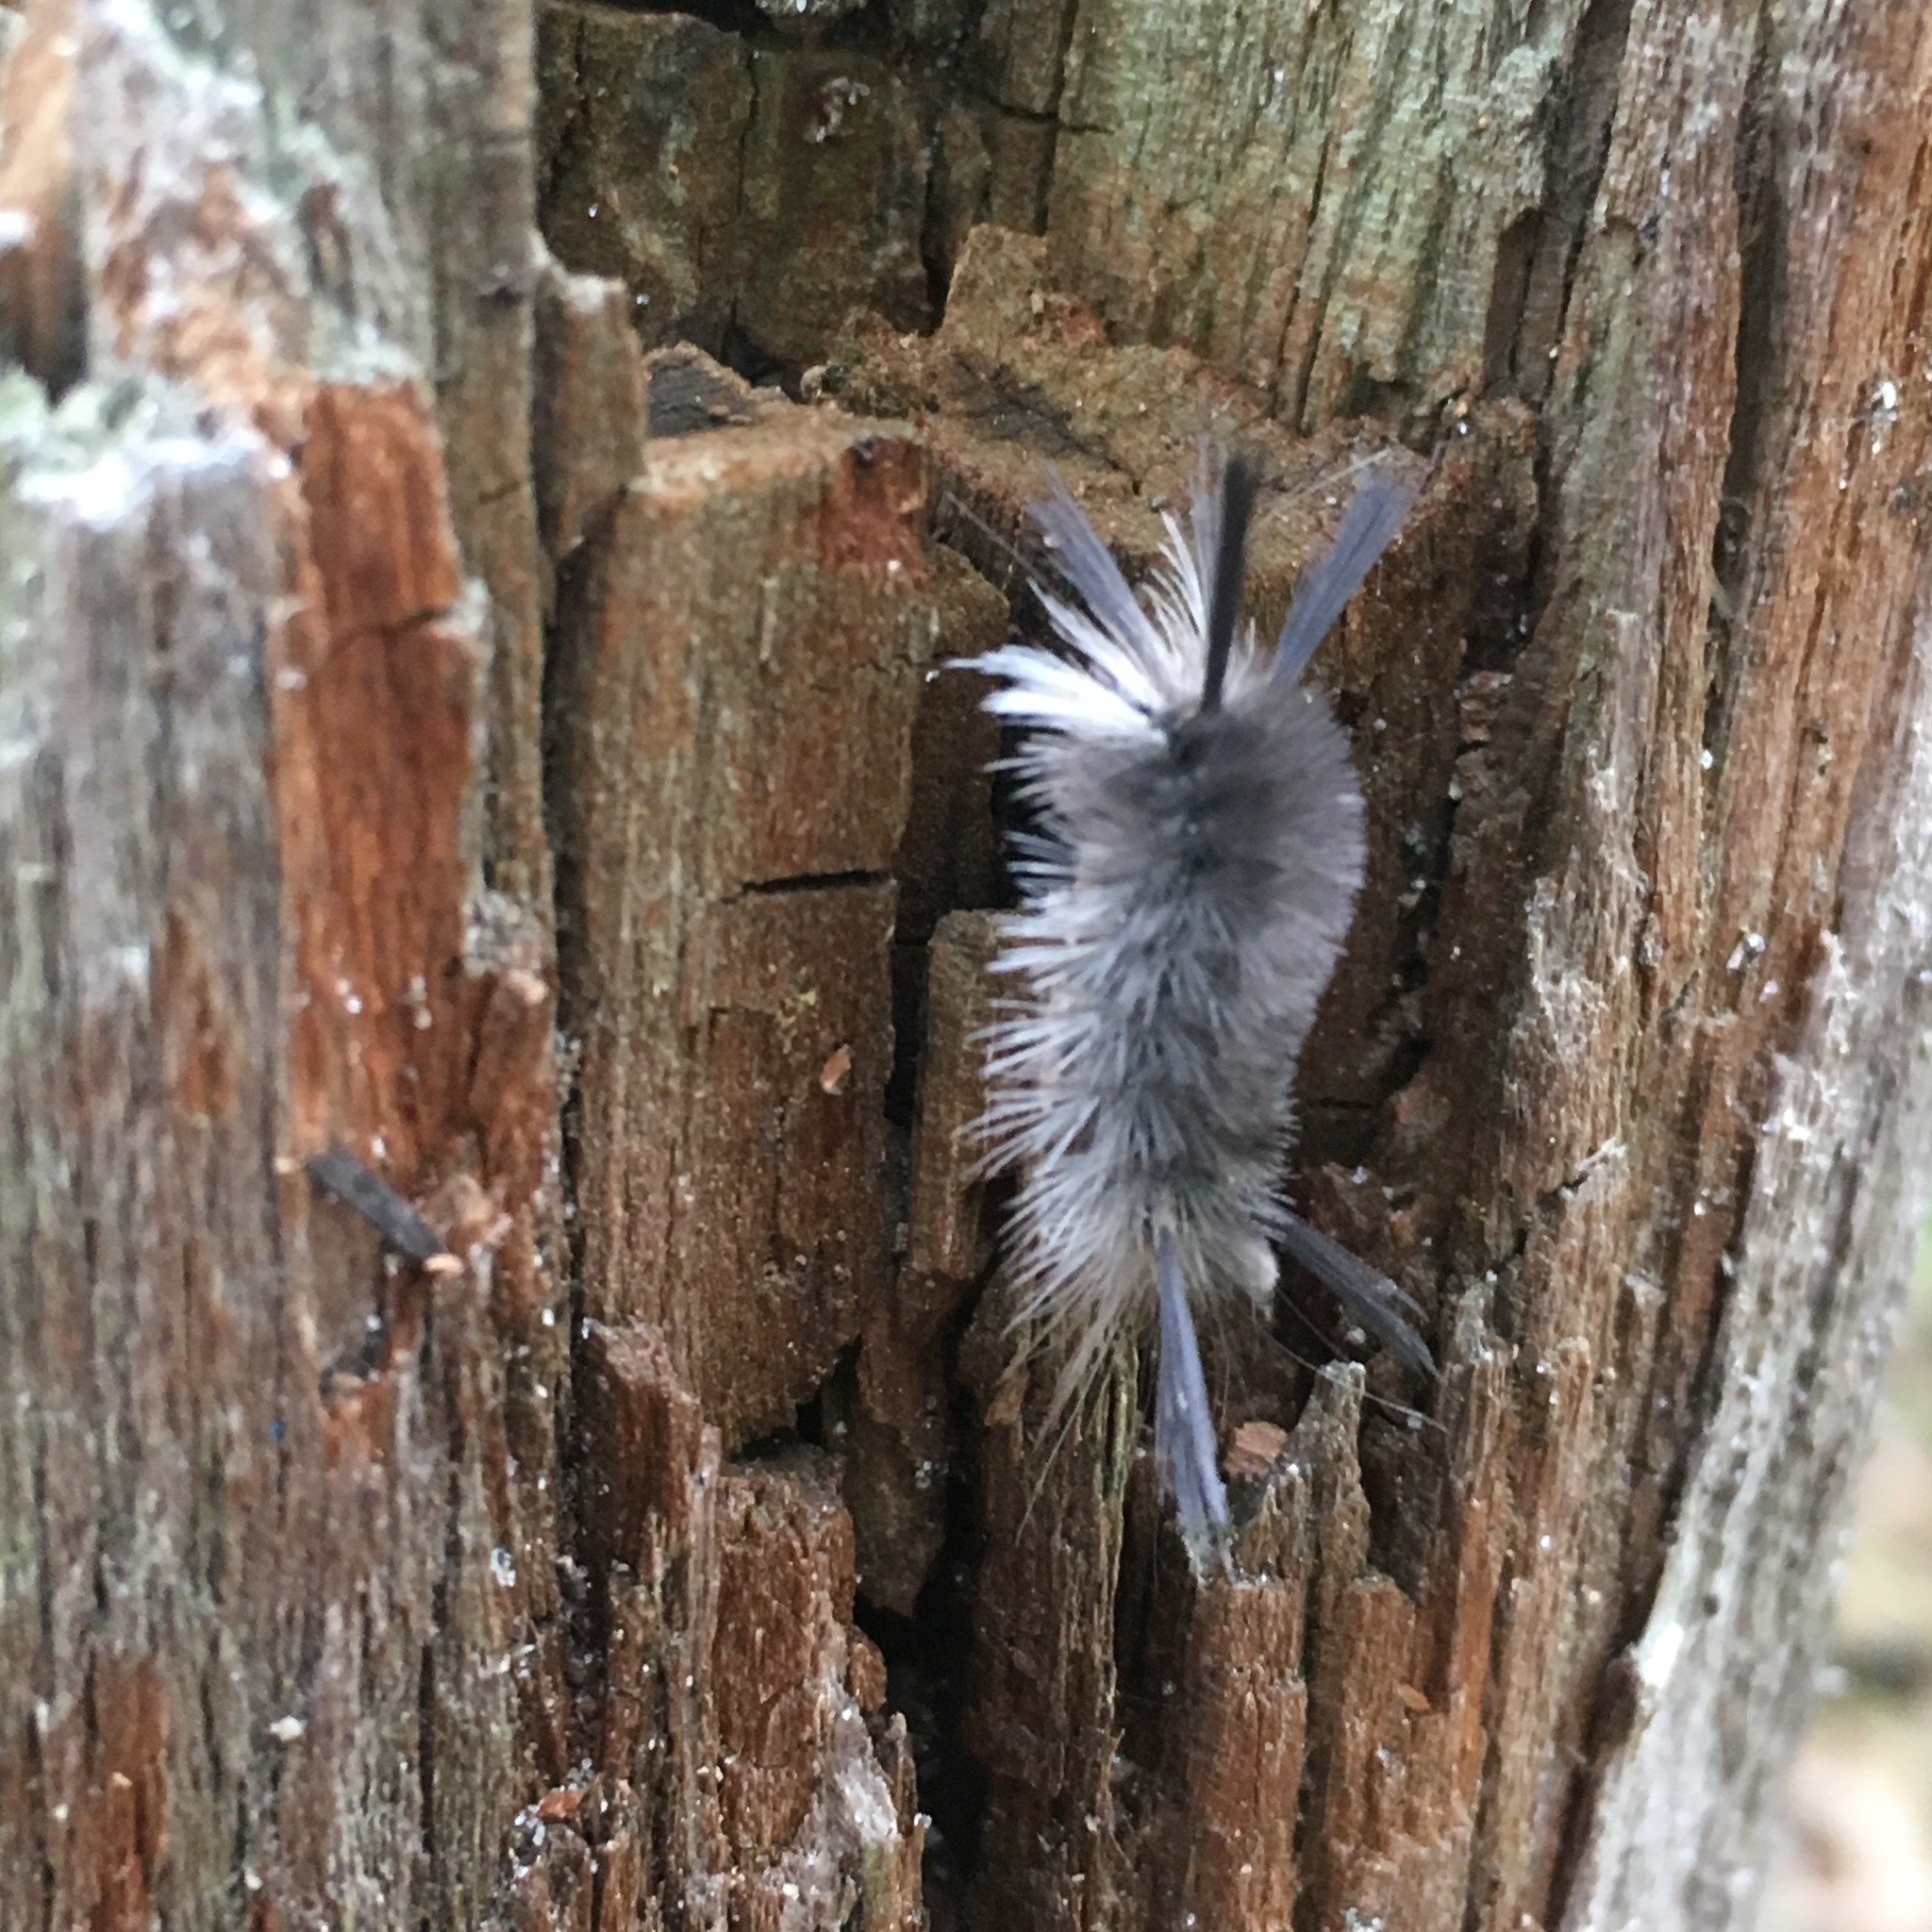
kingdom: Animalia
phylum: Arthropoda
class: Insecta
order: Lepidoptera
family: Erebidae
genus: Halysidota
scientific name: Halysidota tessellaris
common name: Banded tussock moth
